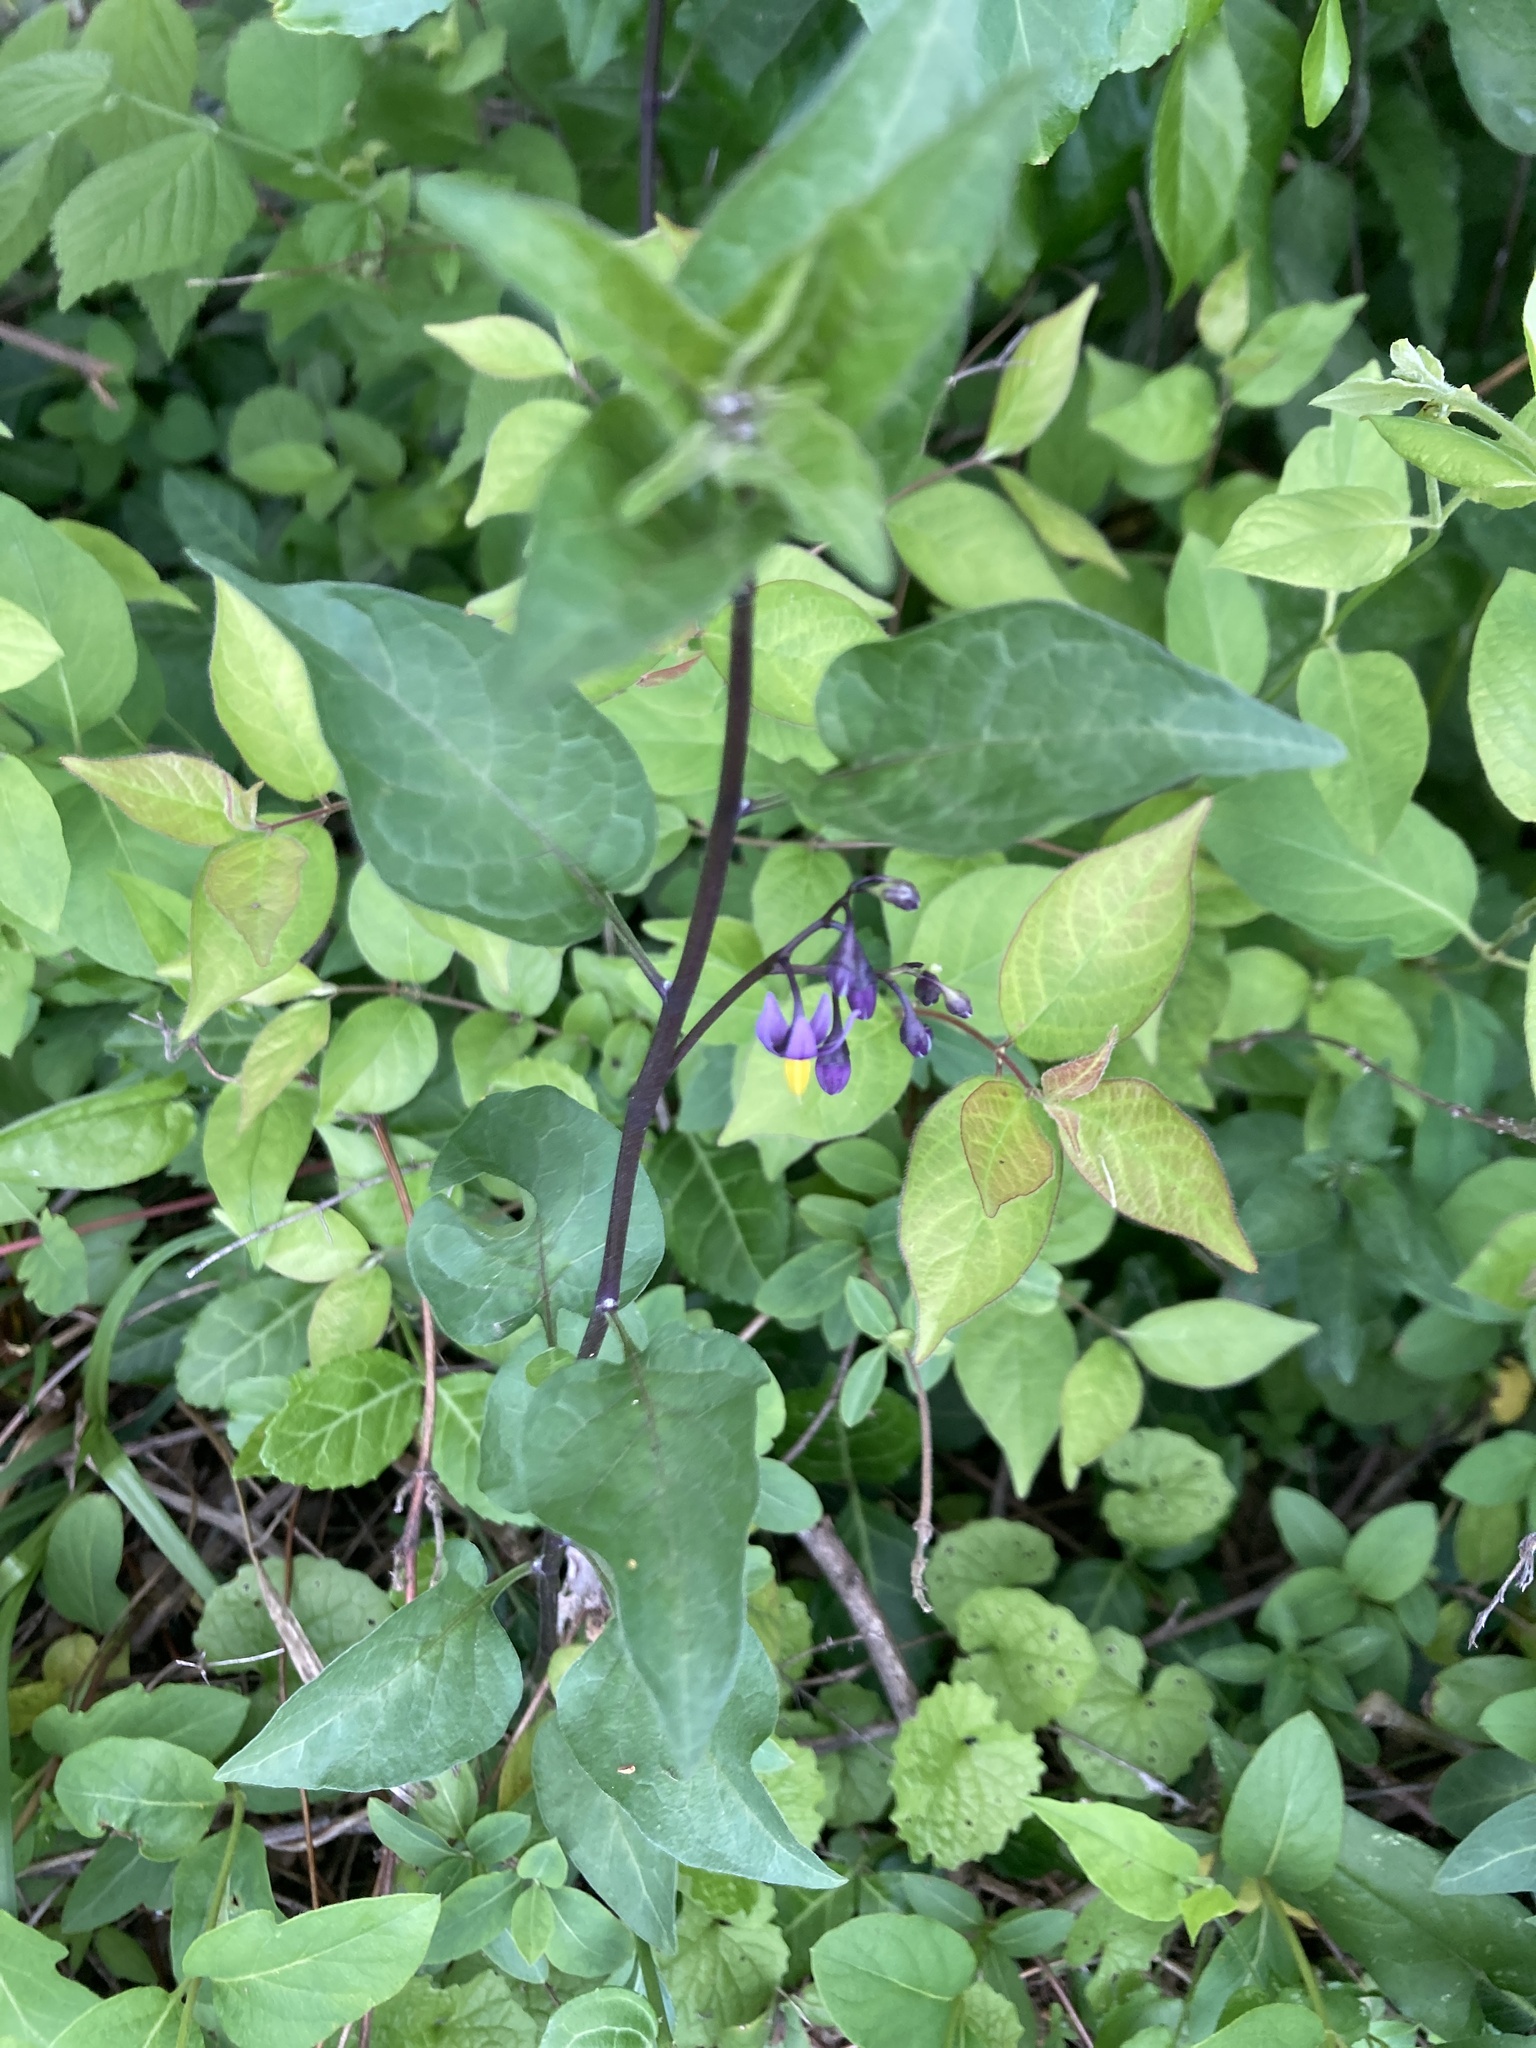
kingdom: Plantae
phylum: Tracheophyta
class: Magnoliopsida
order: Solanales
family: Solanaceae
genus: Solanum
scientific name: Solanum dulcamara
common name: Climbing nightshade
